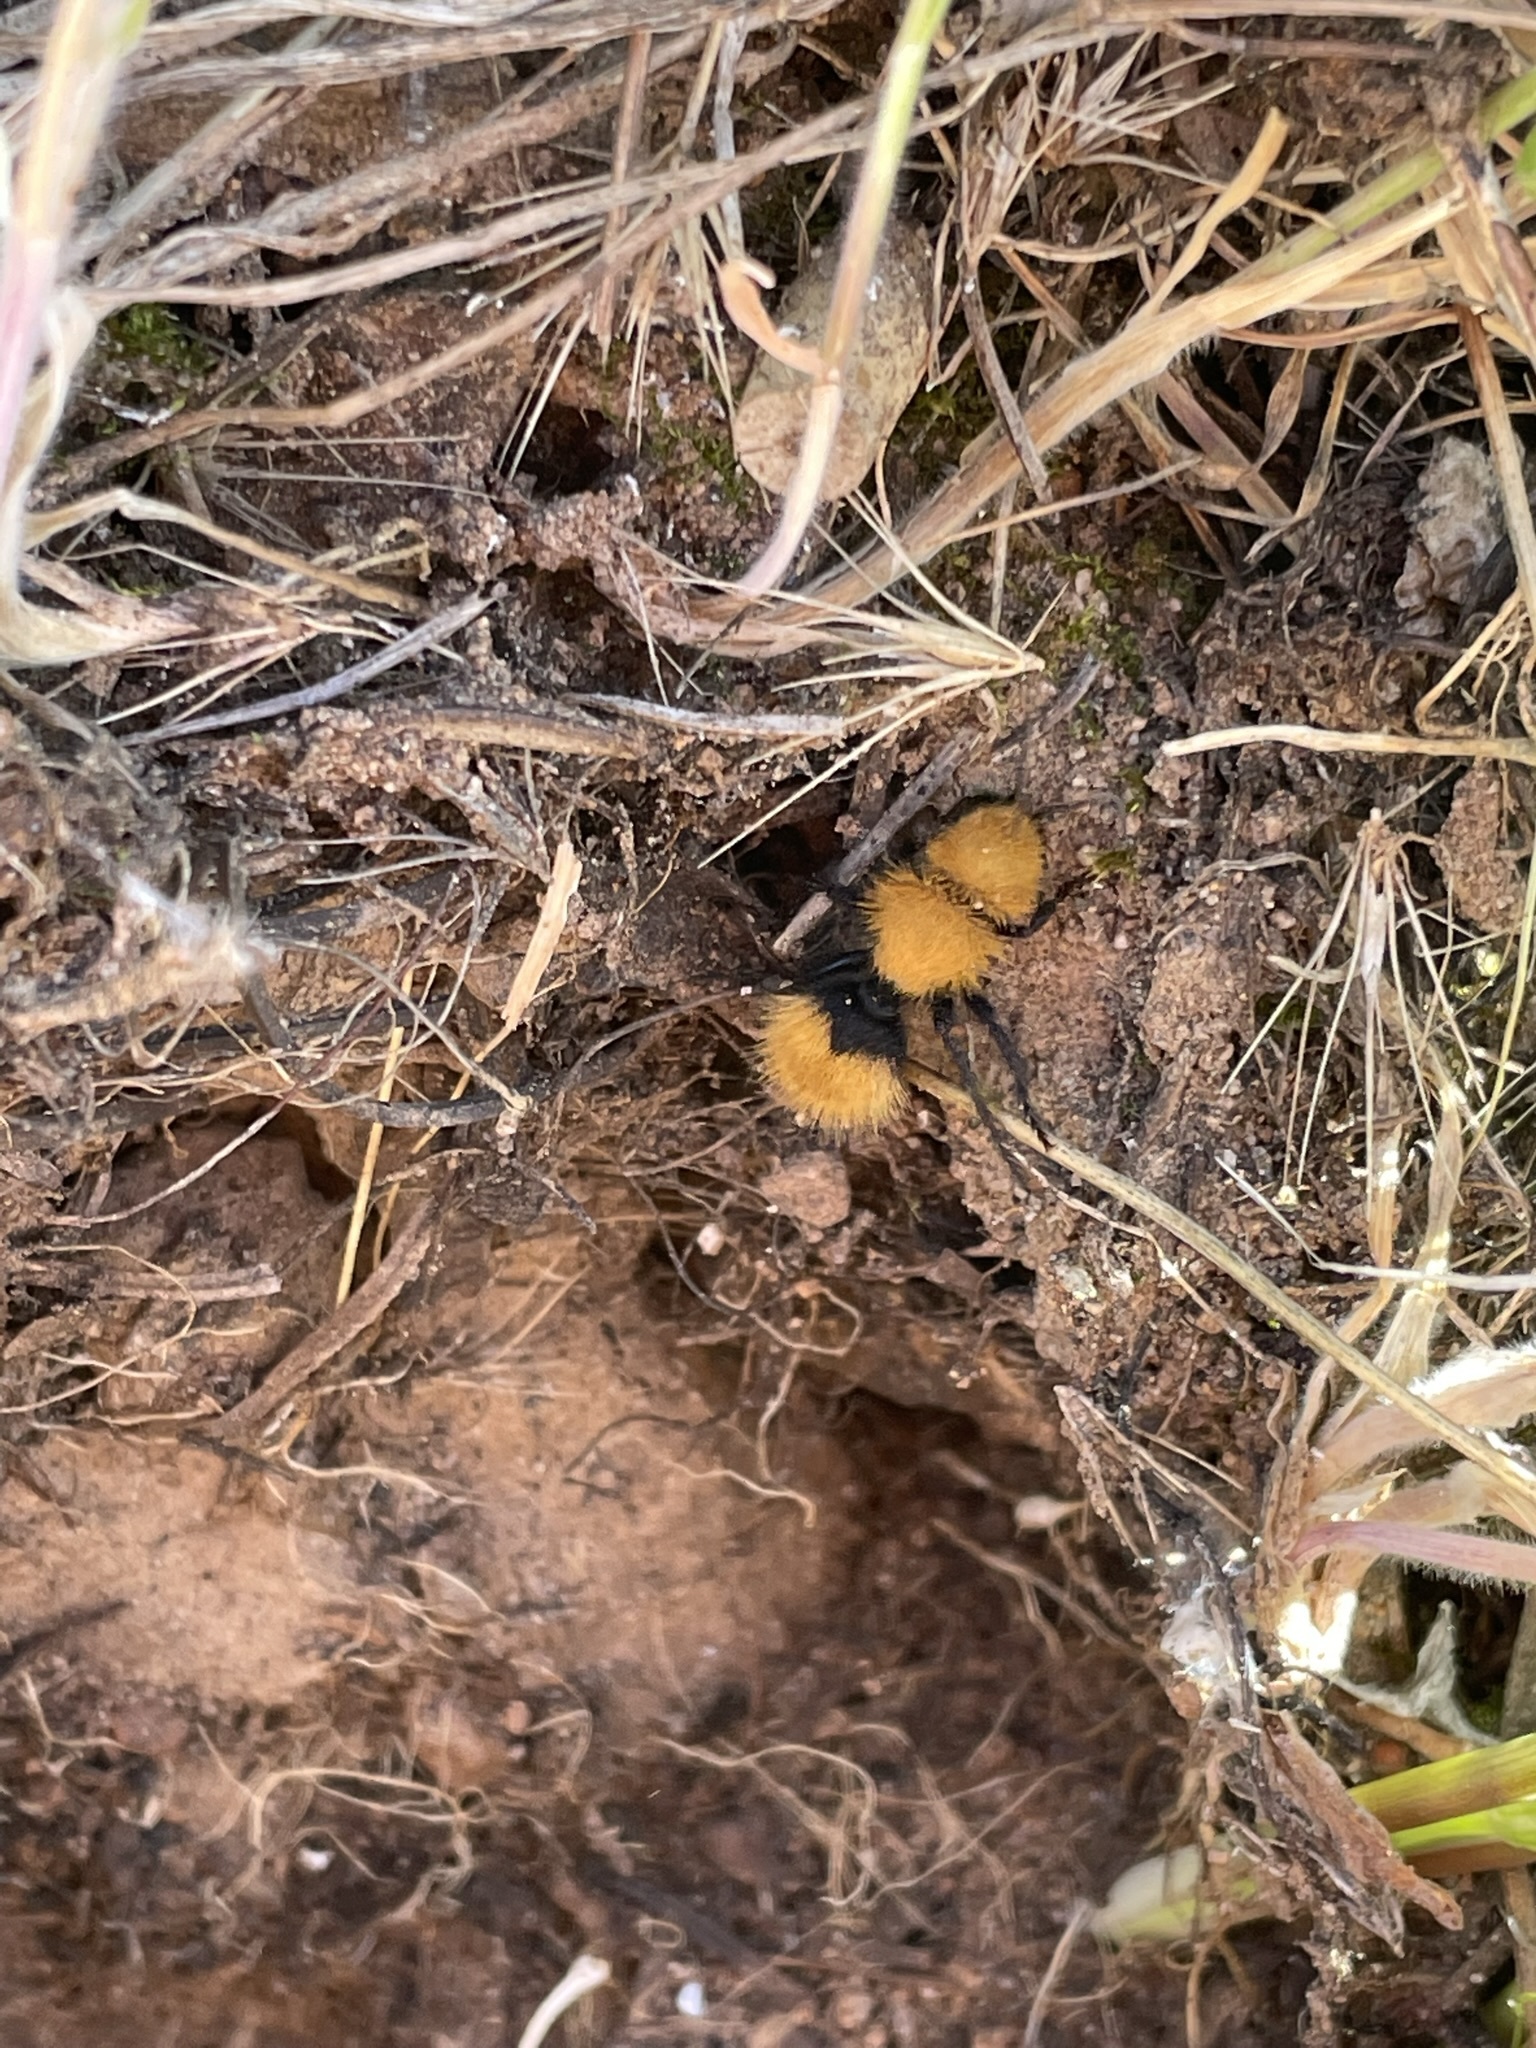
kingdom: Animalia
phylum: Arthropoda
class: Insecta
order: Hymenoptera
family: Mutillidae
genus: Dasymutilla
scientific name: Dasymutilla
